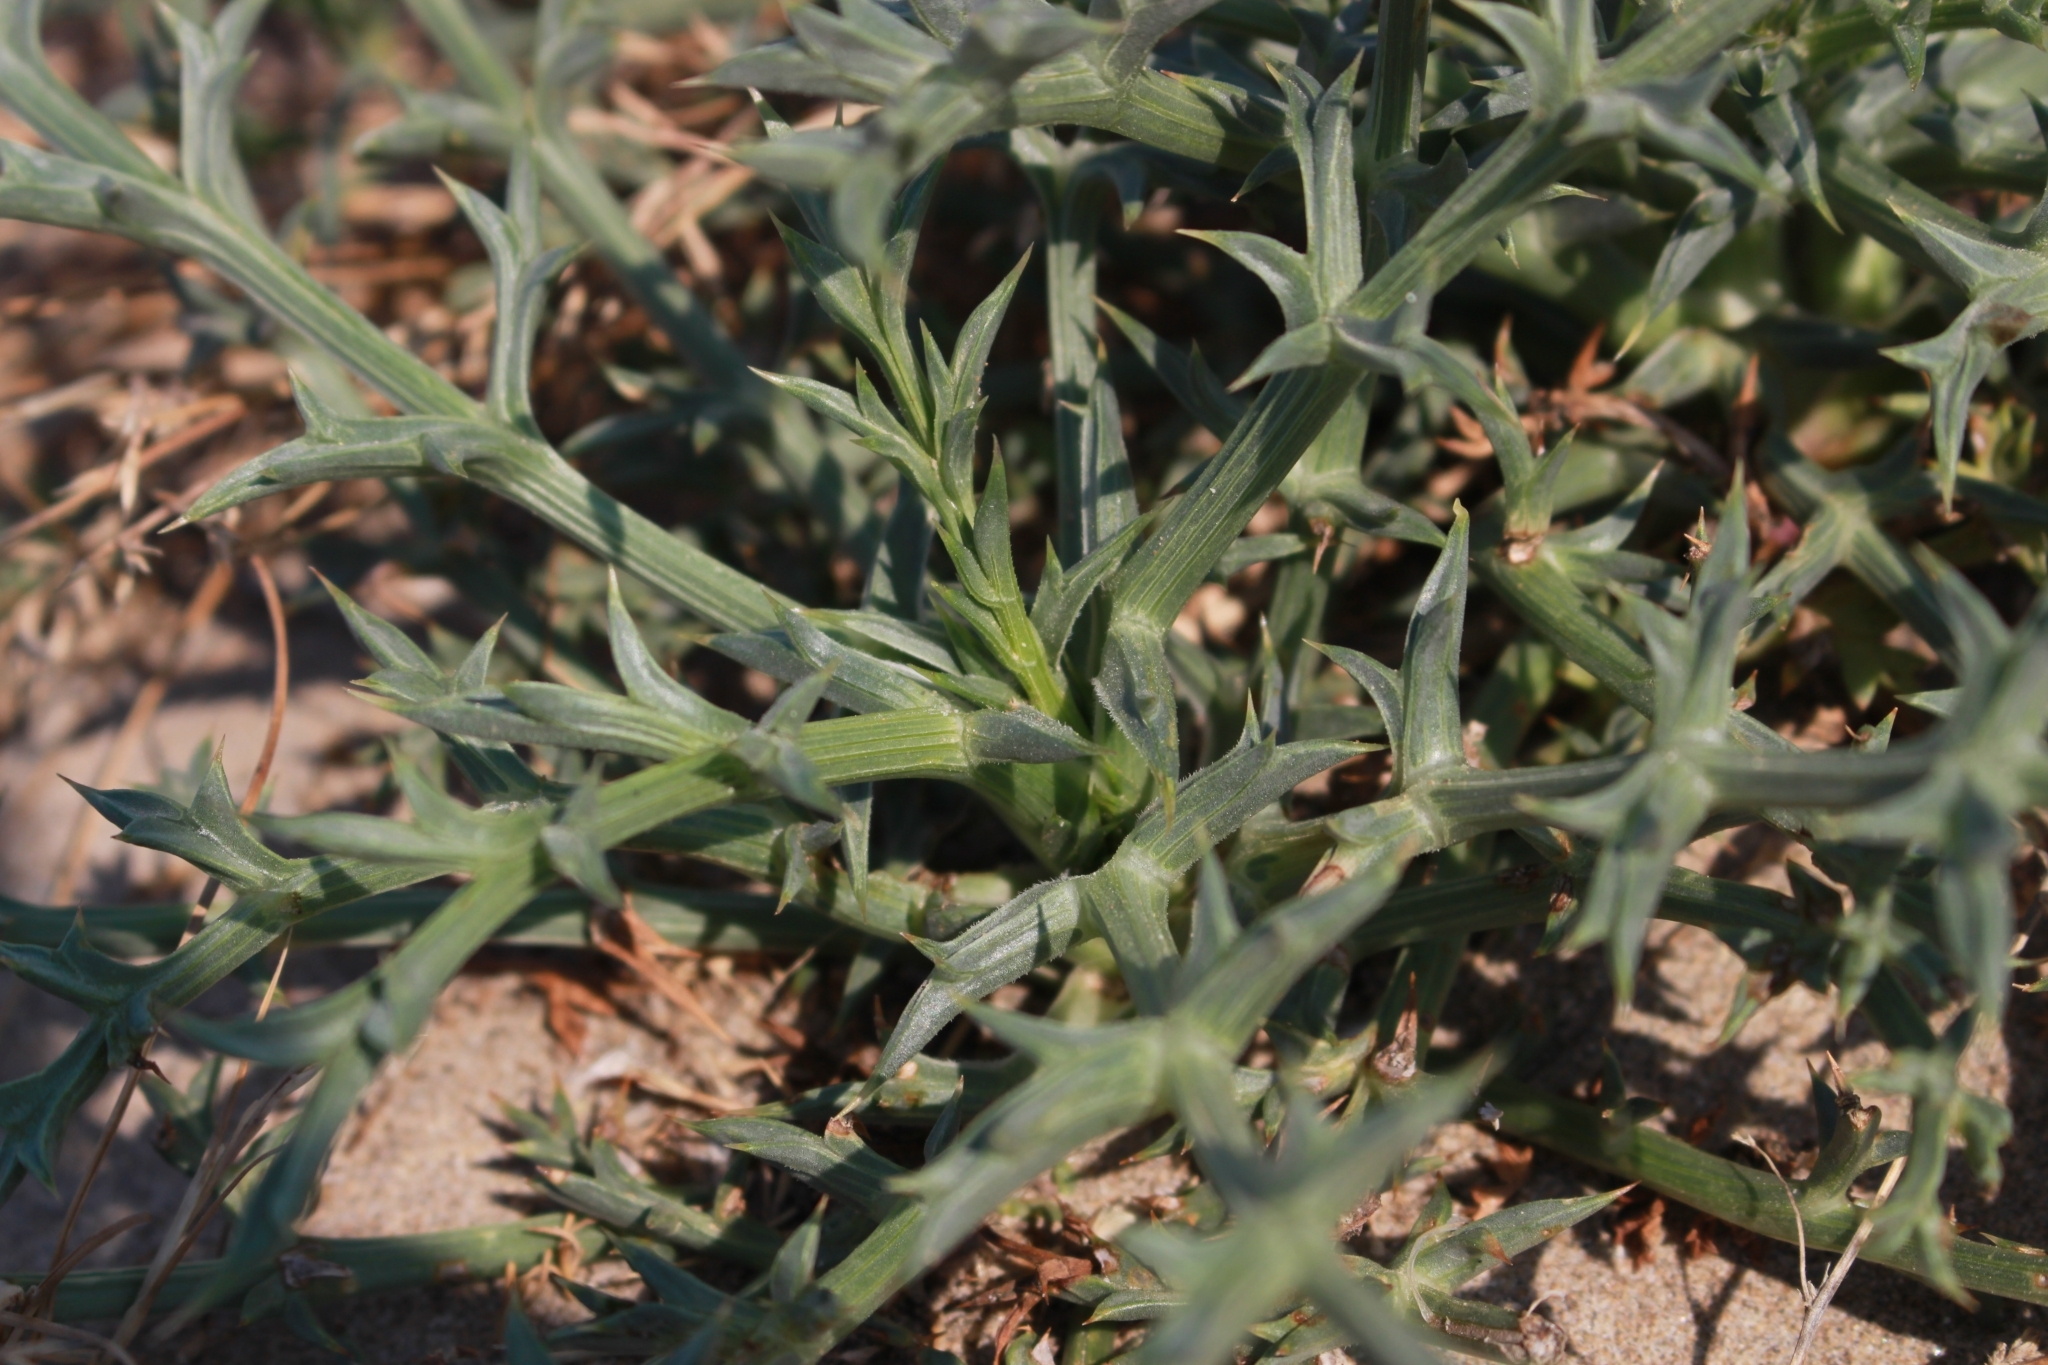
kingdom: Plantae
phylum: Tracheophyta
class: Magnoliopsida
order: Apiales
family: Apiaceae
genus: Echinophora
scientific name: Echinophora spinosa
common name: Prickly samphire
